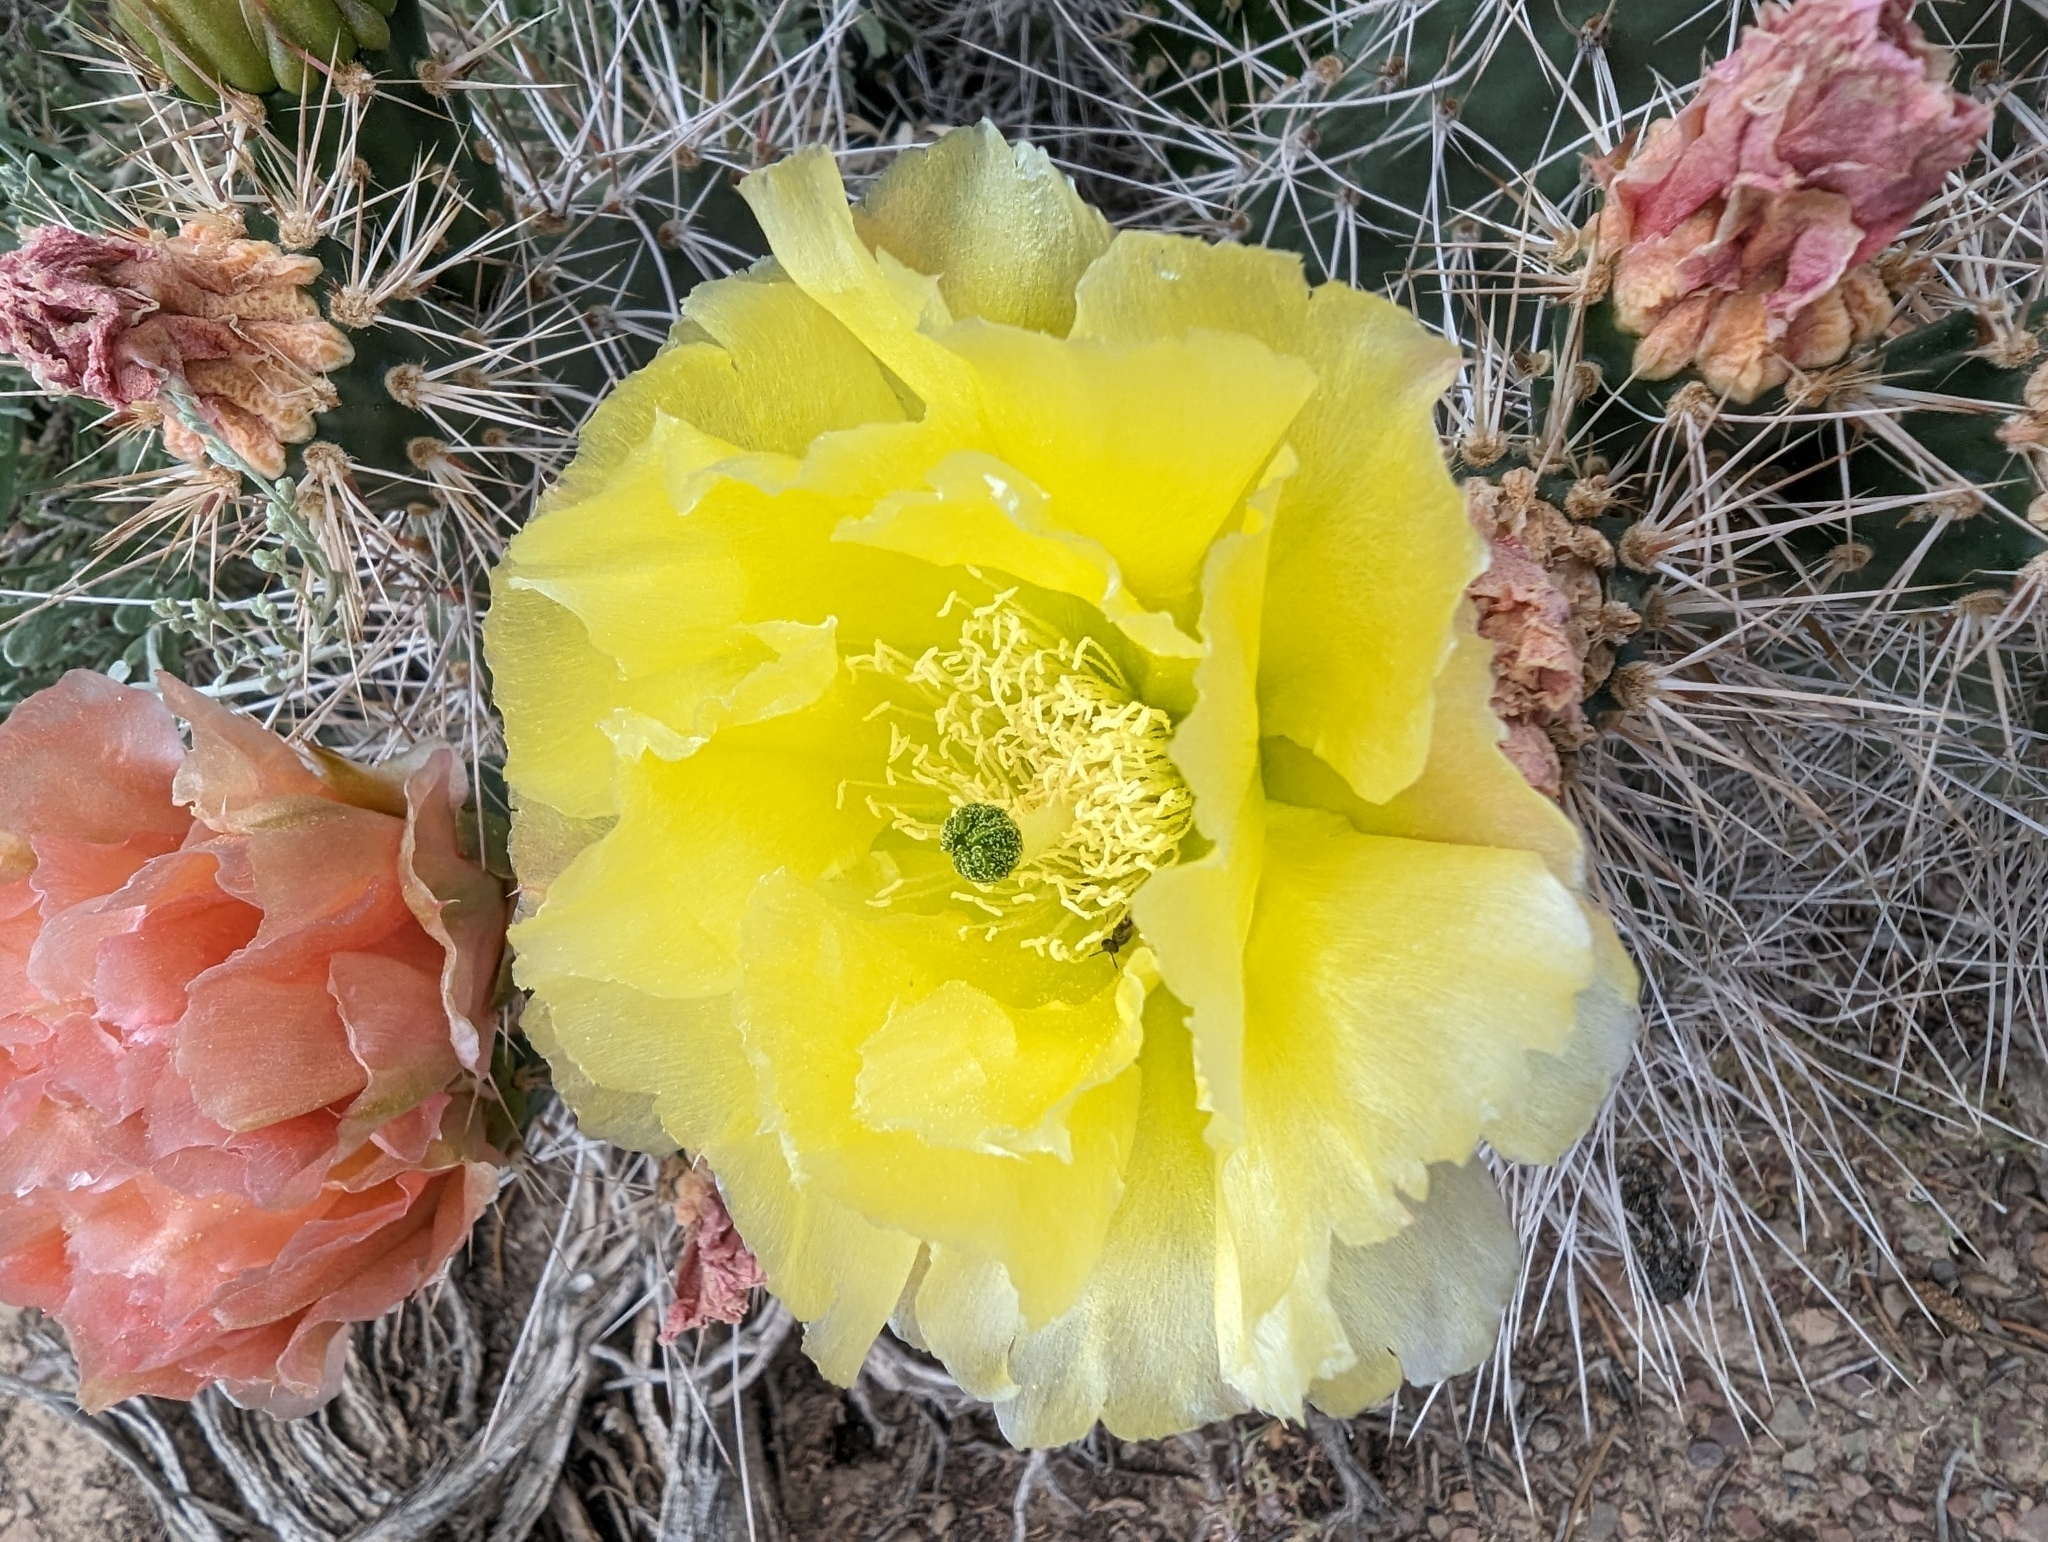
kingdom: Plantae
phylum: Tracheophyta
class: Magnoliopsida
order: Caryophyllales
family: Cactaceae
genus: Opuntia
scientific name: Opuntia polyacantha
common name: Plains prickly-pear
